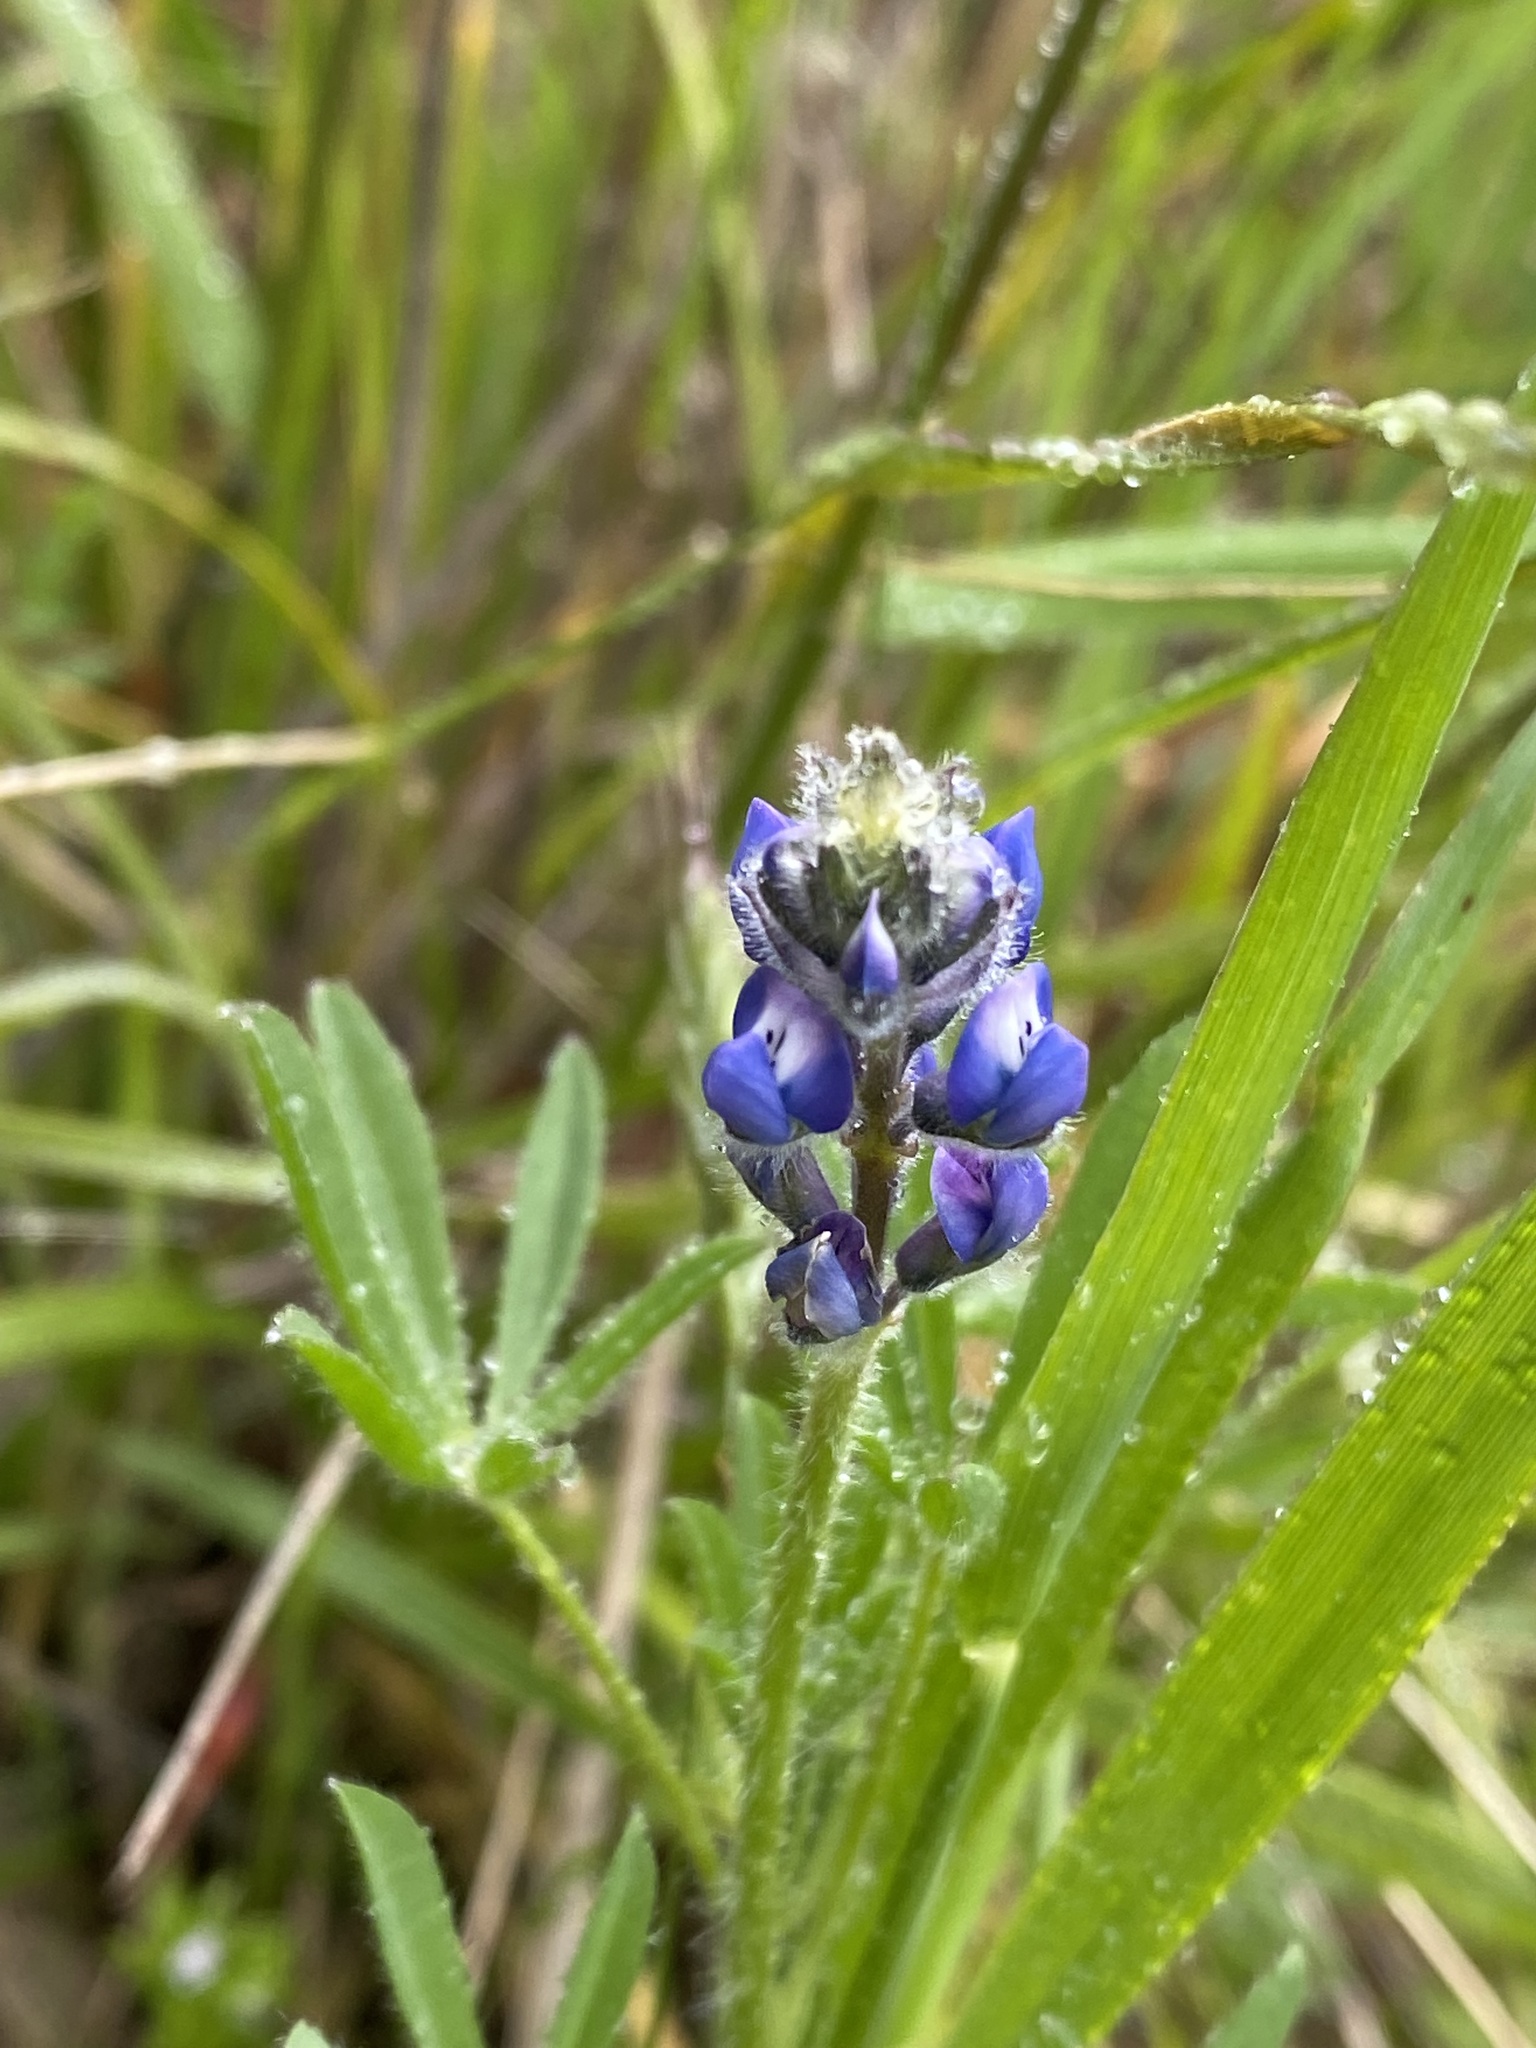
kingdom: Plantae
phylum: Tracheophyta
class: Magnoliopsida
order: Fabales
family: Fabaceae
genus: Lupinus
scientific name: Lupinus bicolor
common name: Miniature lupine
